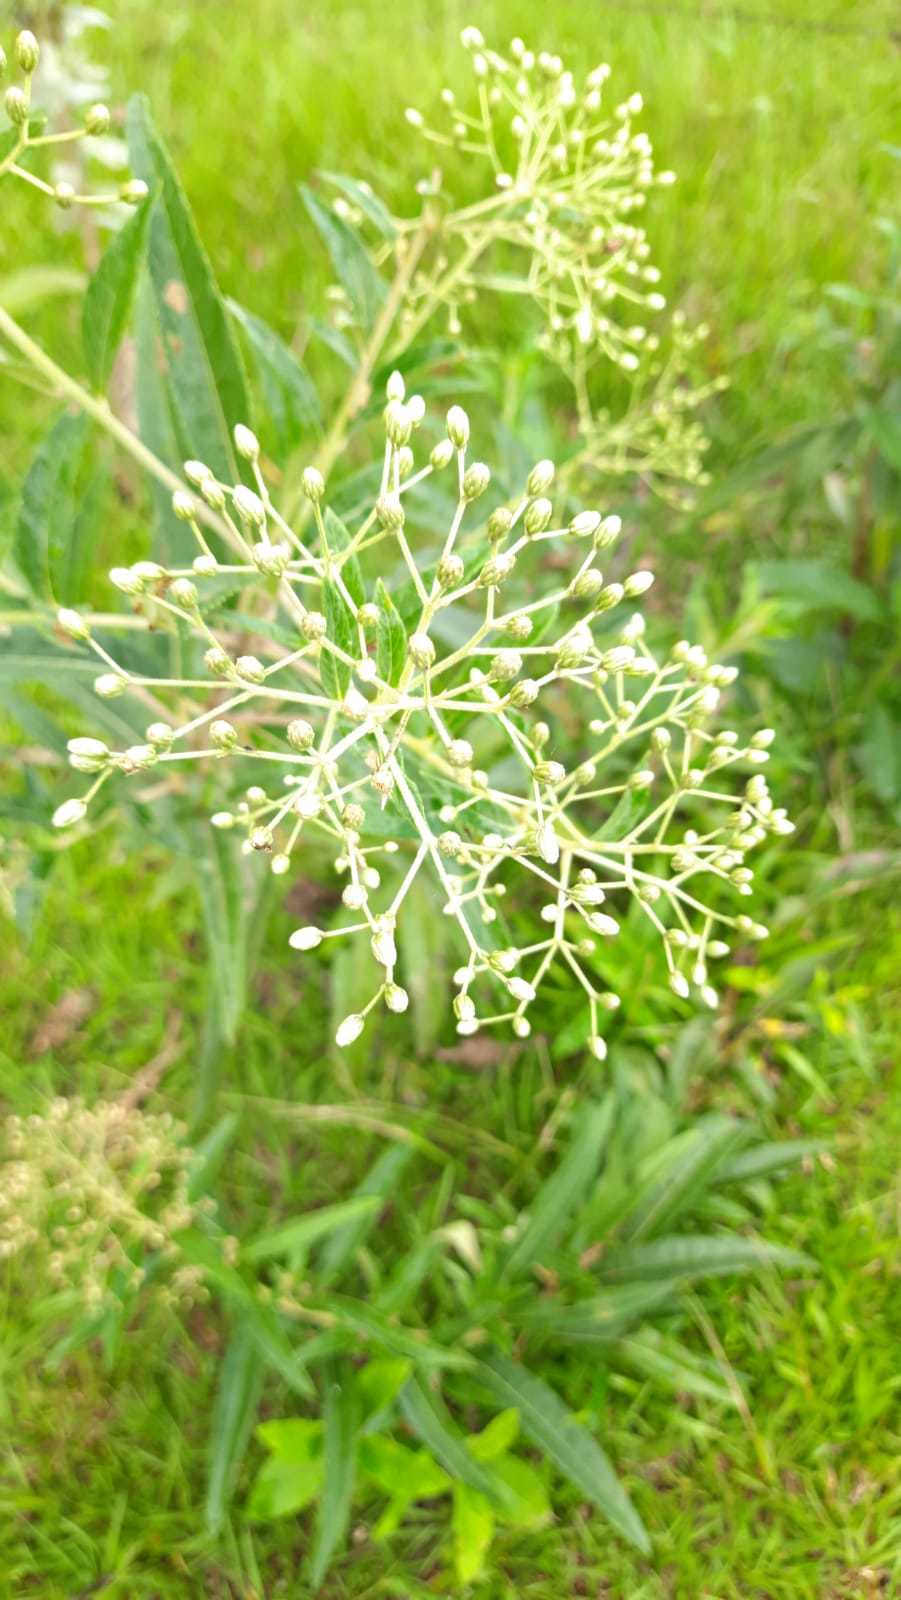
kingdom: Plantae
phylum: Tracheophyta
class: Magnoliopsida
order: Asterales
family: Asteraceae
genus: Vernonanthura
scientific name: Vernonanthura tweedieana
